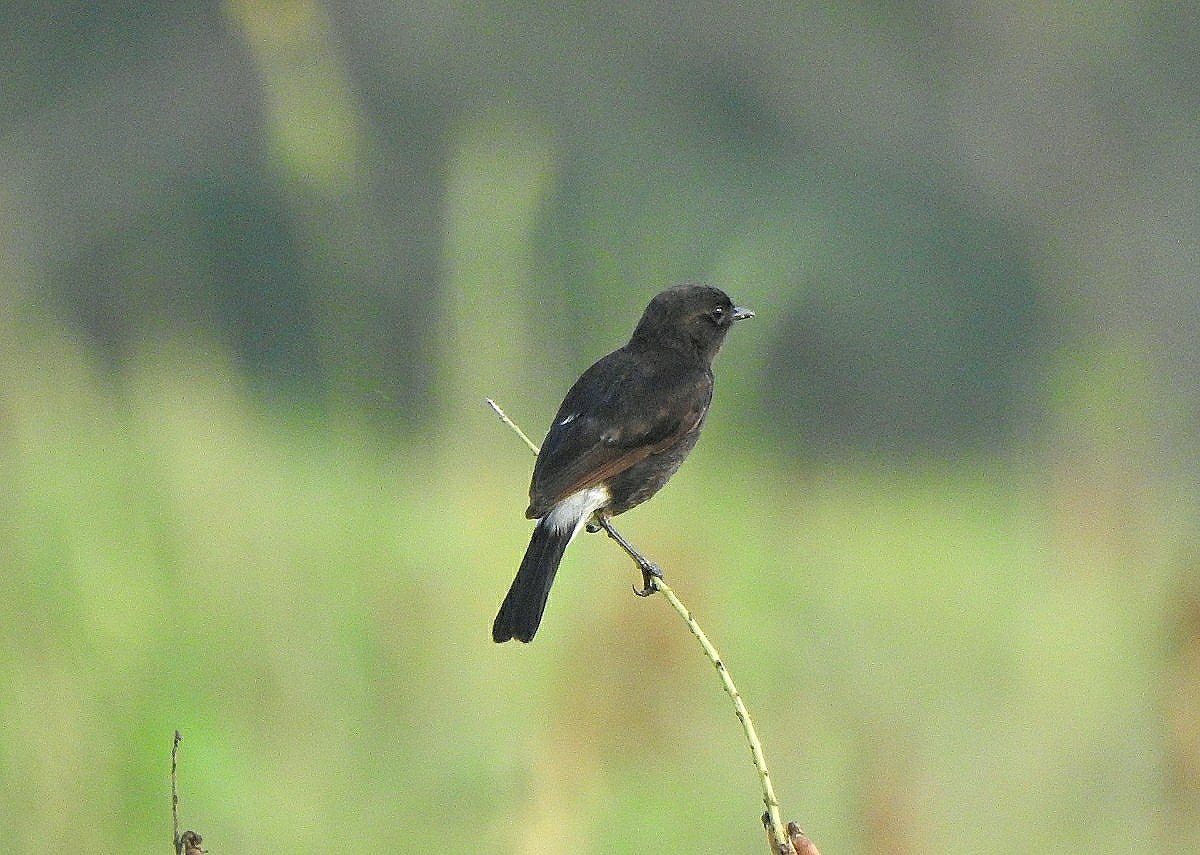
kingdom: Animalia
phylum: Chordata
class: Aves
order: Passeriformes
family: Muscicapidae
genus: Saxicola
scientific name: Saxicola caprata
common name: Pied bush chat
